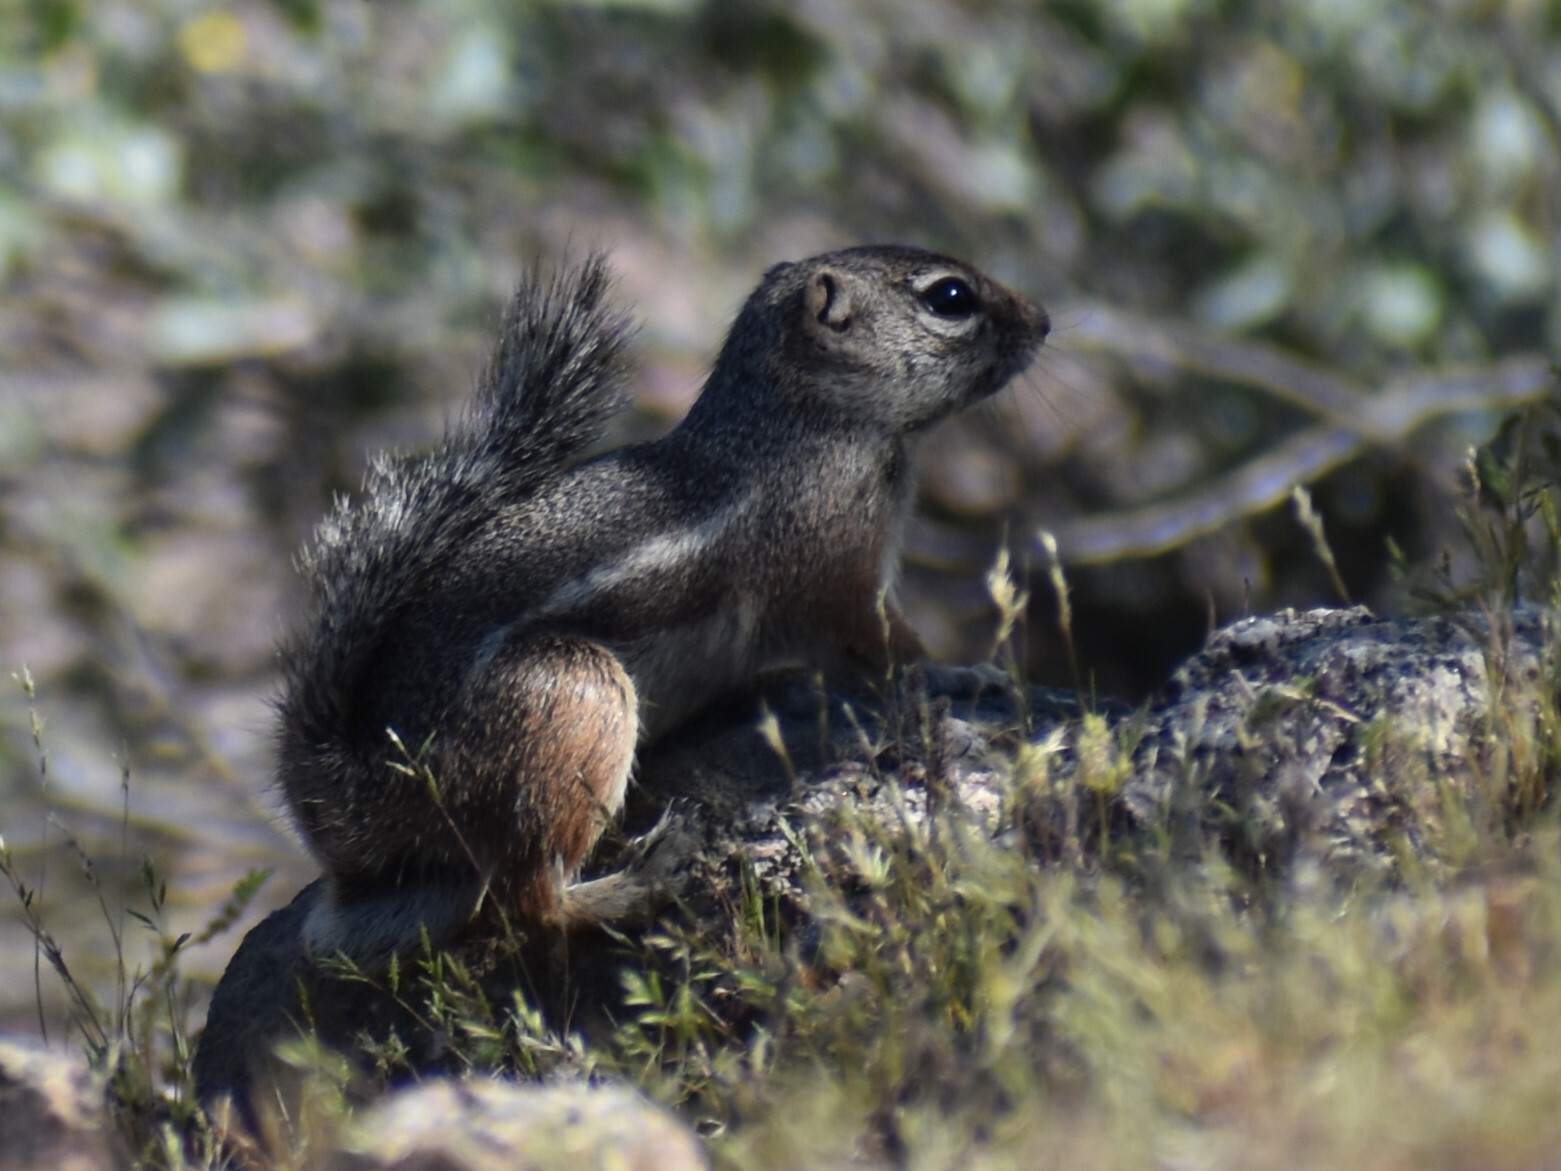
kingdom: Animalia
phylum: Chordata
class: Mammalia
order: Rodentia
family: Sciuridae
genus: Ammospermophilus
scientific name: Ammospermophilus harrisii
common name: Harris's antelope squirrel
